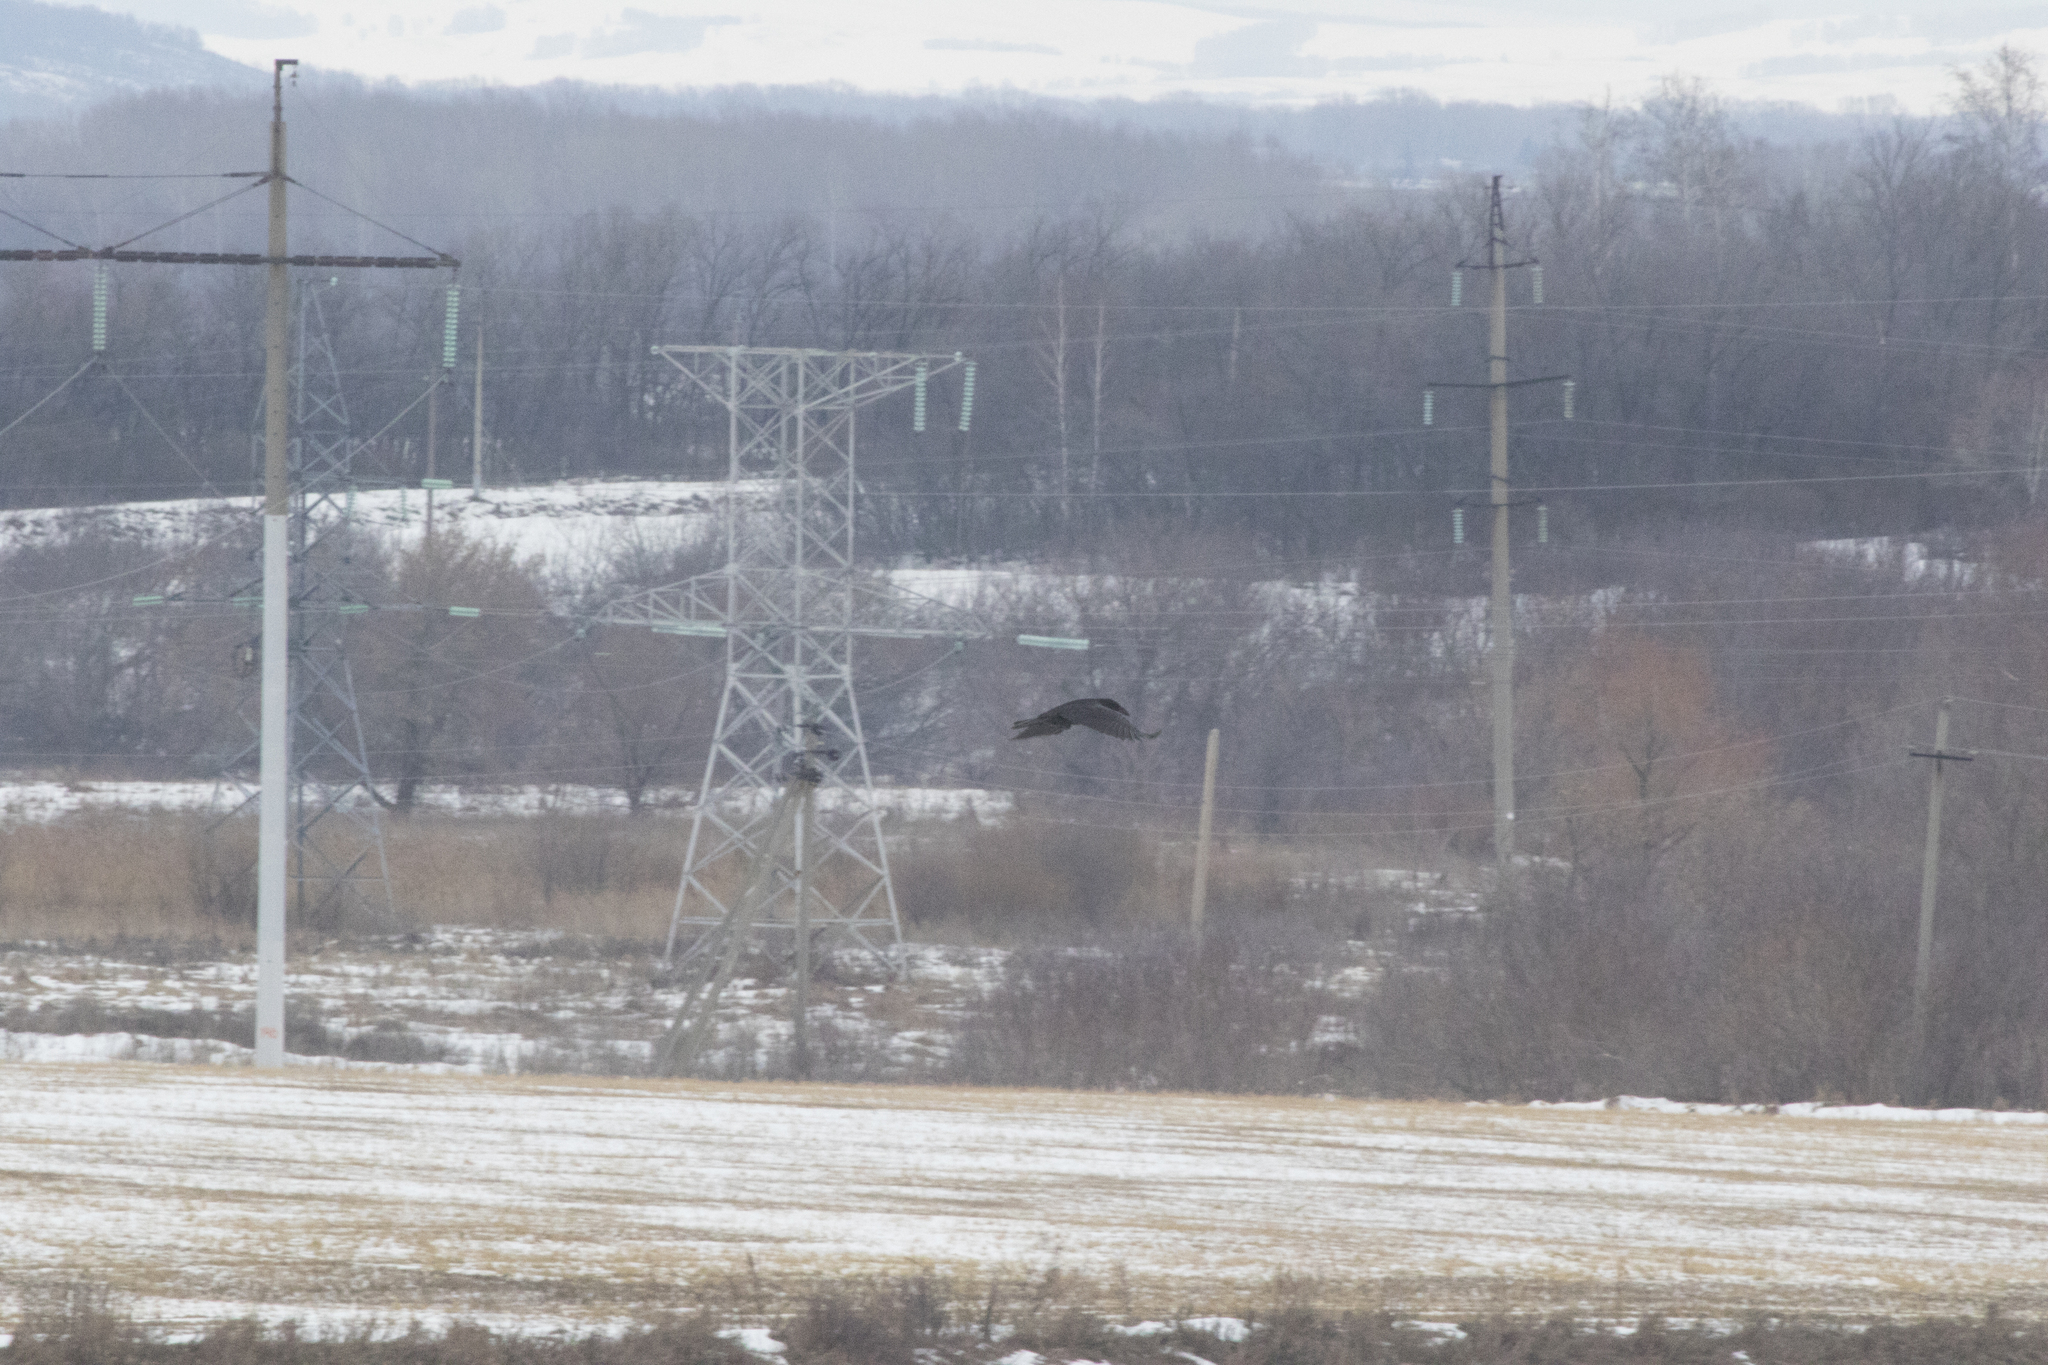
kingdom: Animalia
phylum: Chordata
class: Aves
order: Passeriformes
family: Corvidae
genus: Corvus
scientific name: Corvus corax
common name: Common raven
